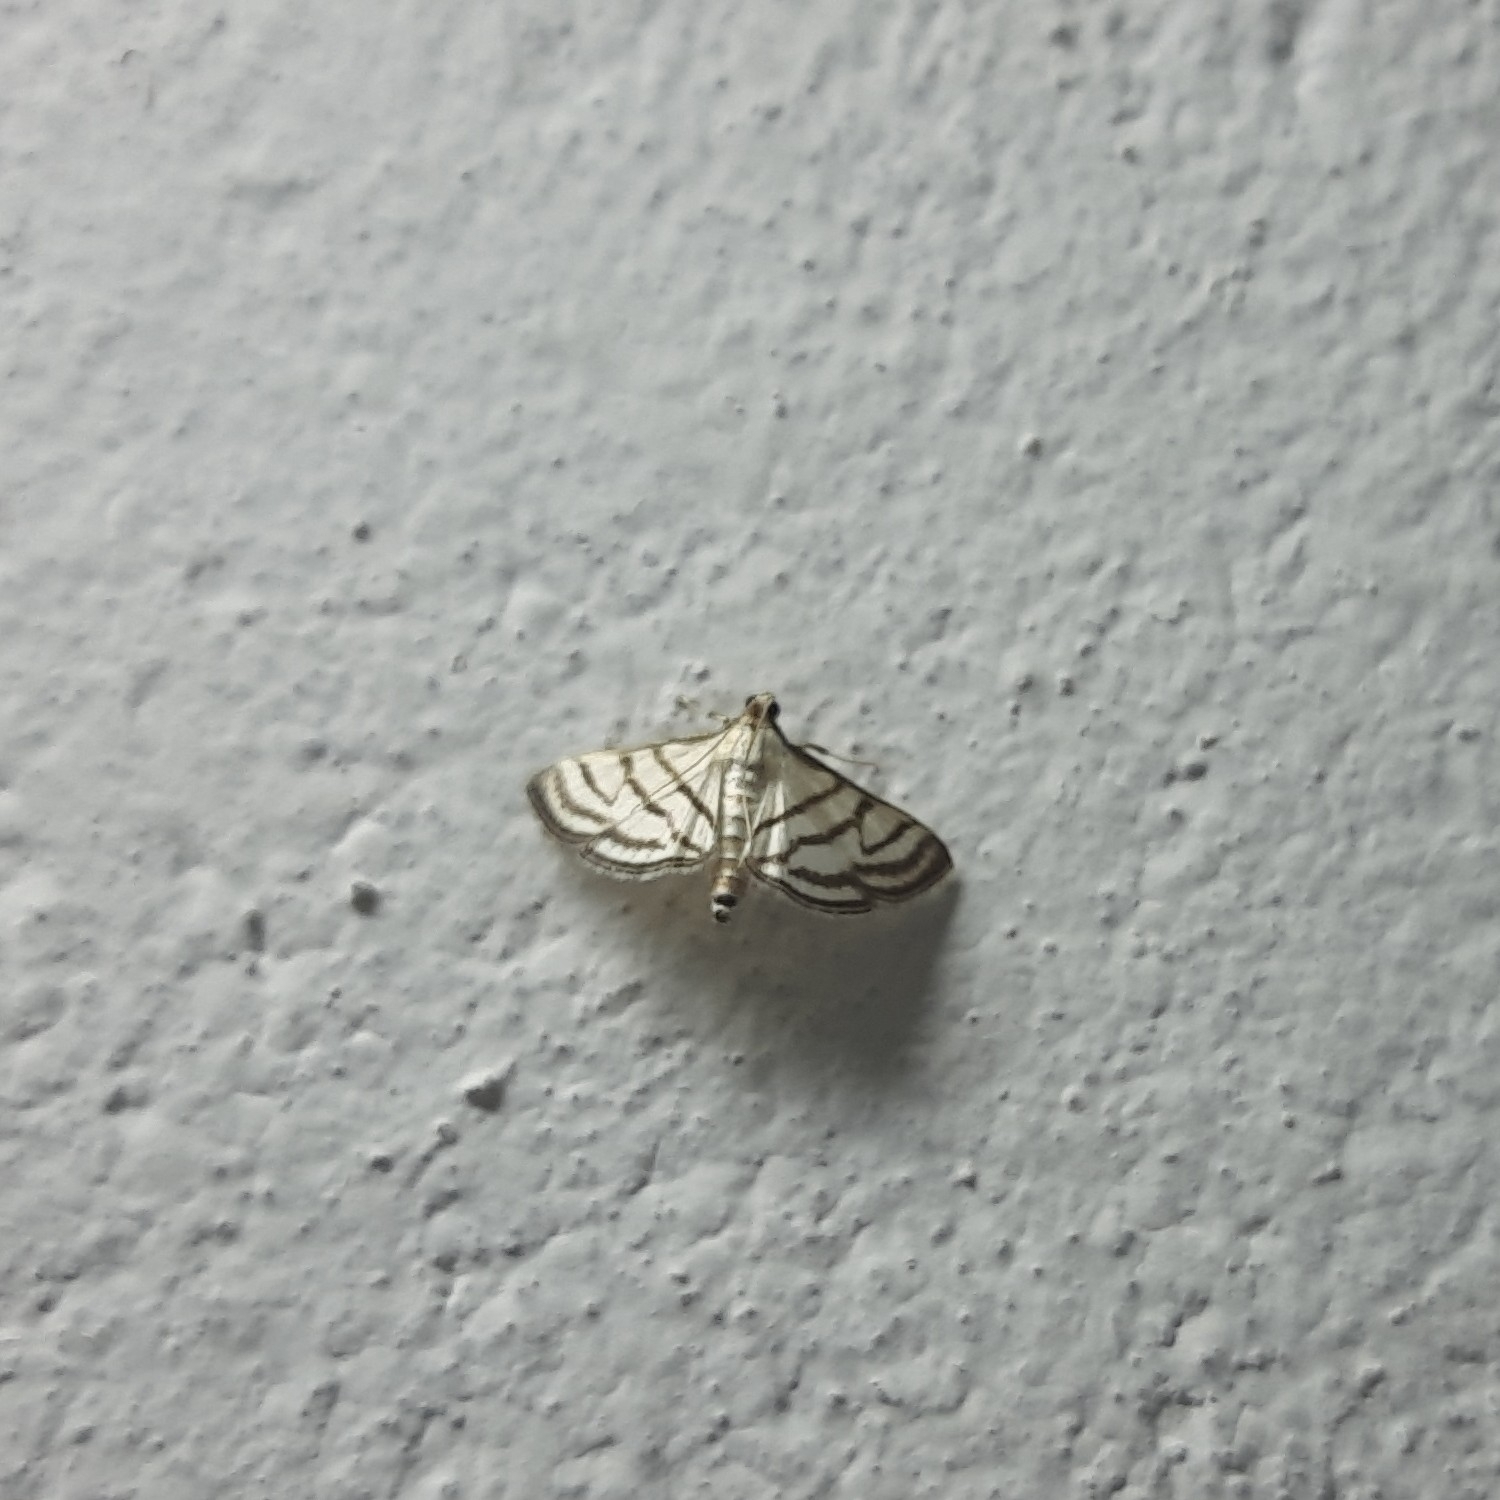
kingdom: Animalia
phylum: Arthropoda
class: Insecta
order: Lepidoptera
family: Crambidae
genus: Ravanoa
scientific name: Ravanoa xiphialis
